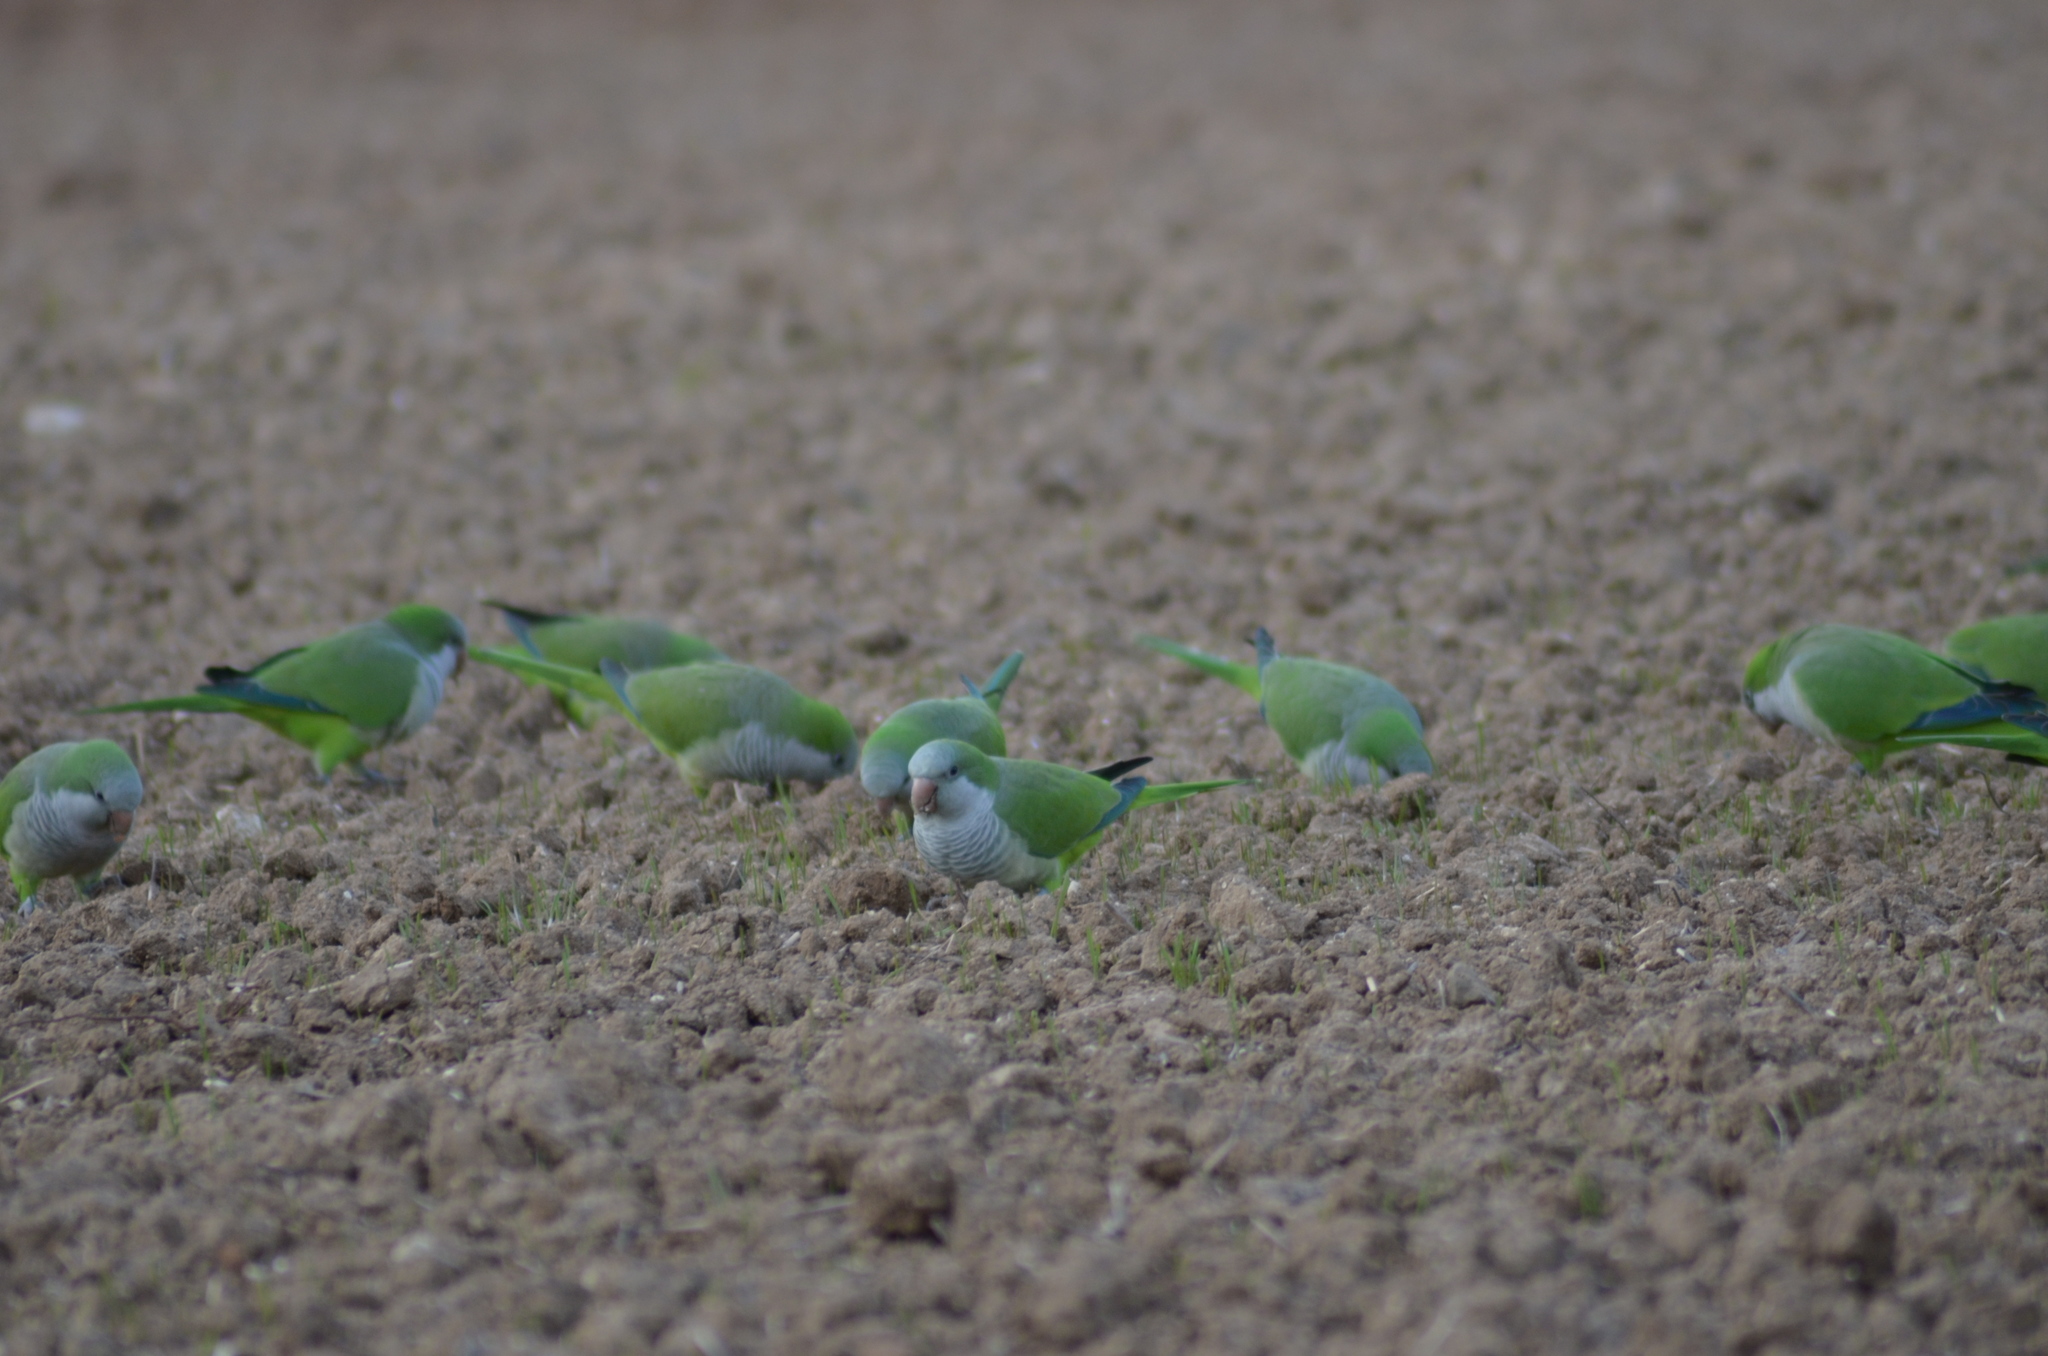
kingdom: Animalia
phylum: Chordata
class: Aves
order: Psittaciformes
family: Psittacidae
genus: Myiopsitta
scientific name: Myiopsitta monachus
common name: Monk parakeet
